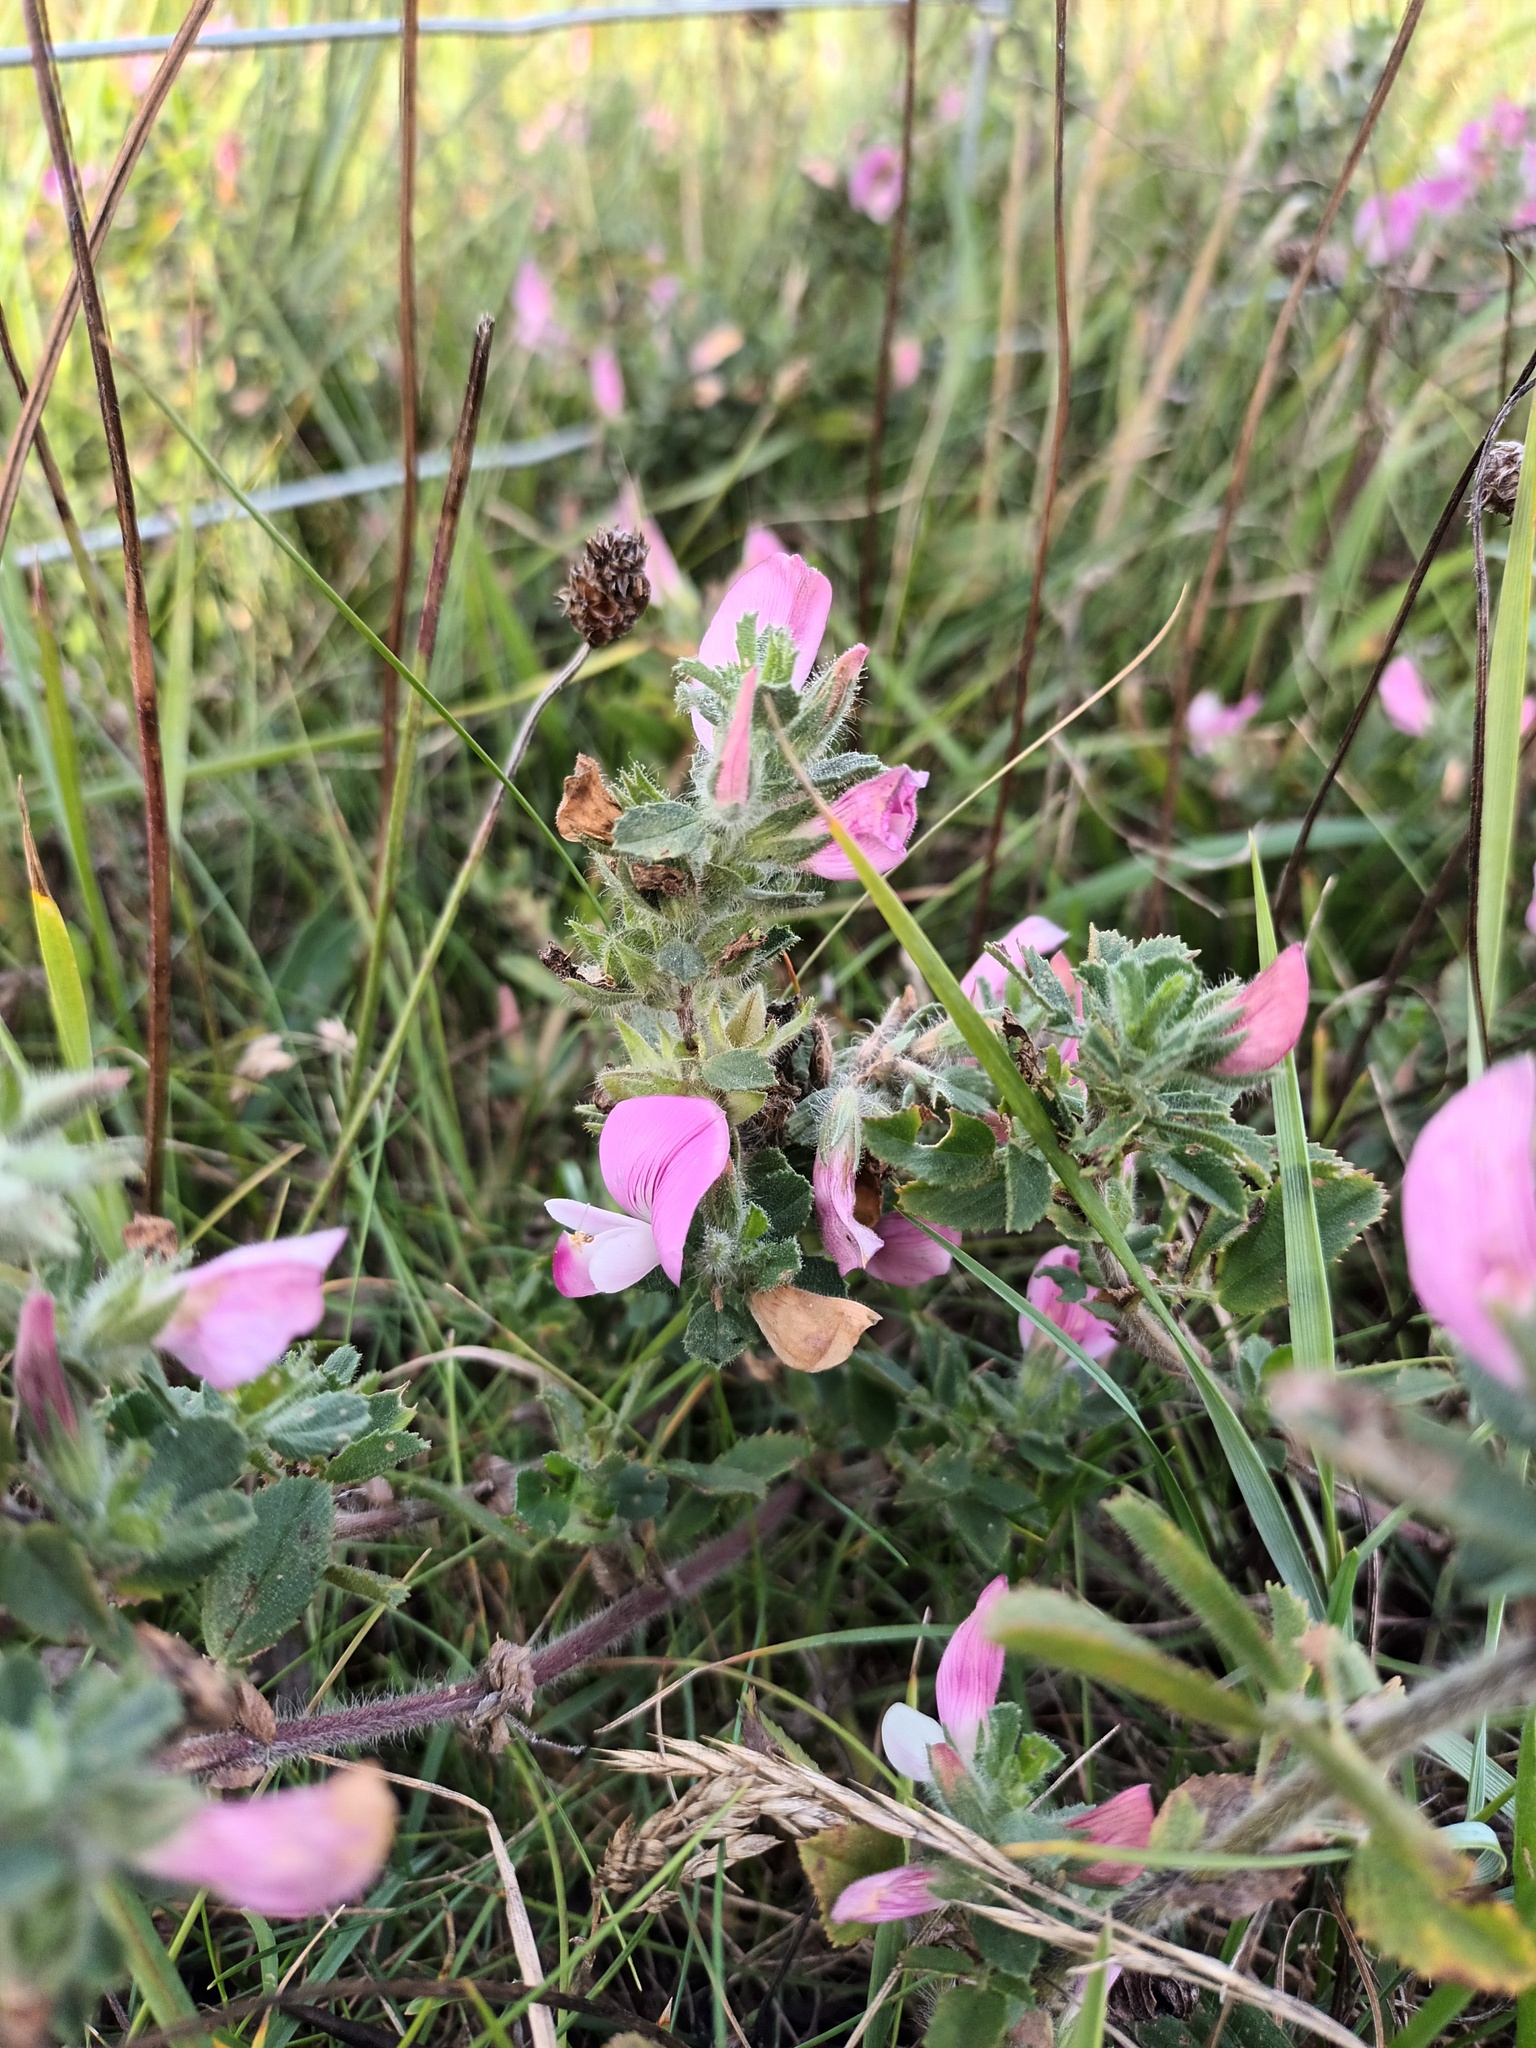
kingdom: Plantae
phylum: Tracheophyta
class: Magnoliopsida
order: Fabales
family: Fabaceae
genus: Ononis
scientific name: Ononis spinosa
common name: Spiny restharrow
